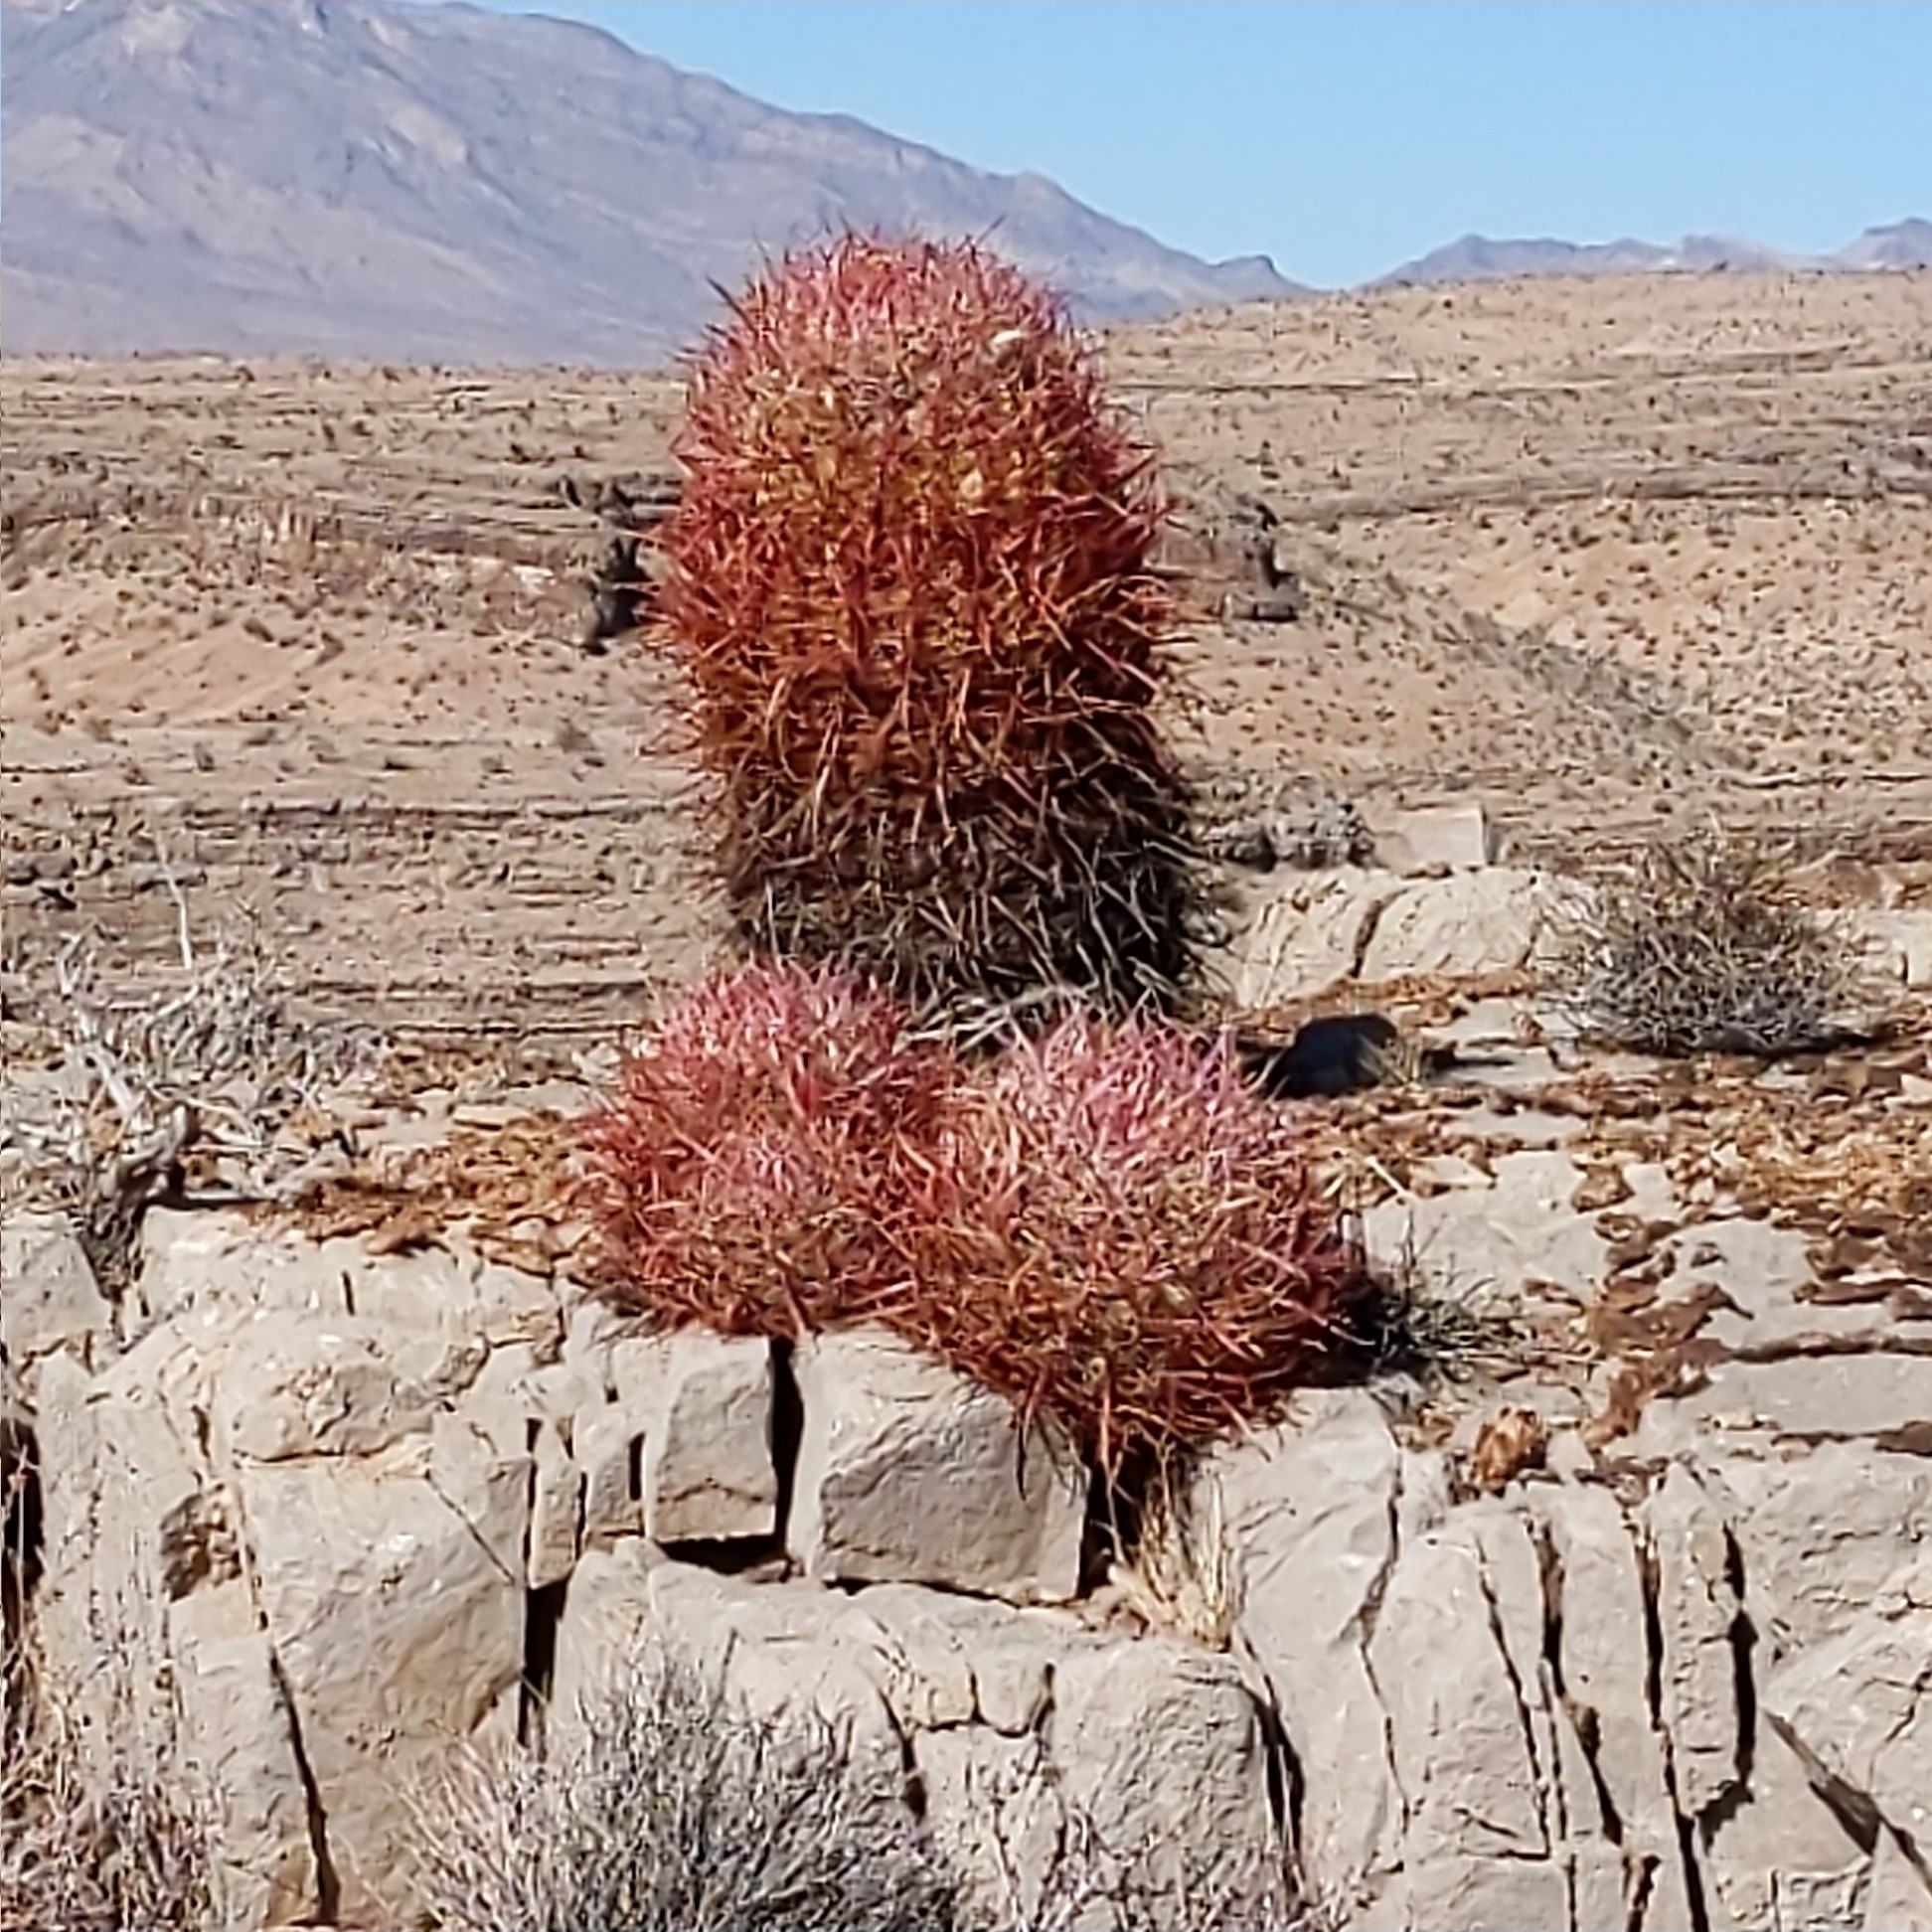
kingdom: Plantae
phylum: Tracheophyta
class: Magnoliopsida
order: Caryophyllales
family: Cactaceae
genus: Ferocactus
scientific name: Ferocactus cylindraceus
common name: California barrel cactus
